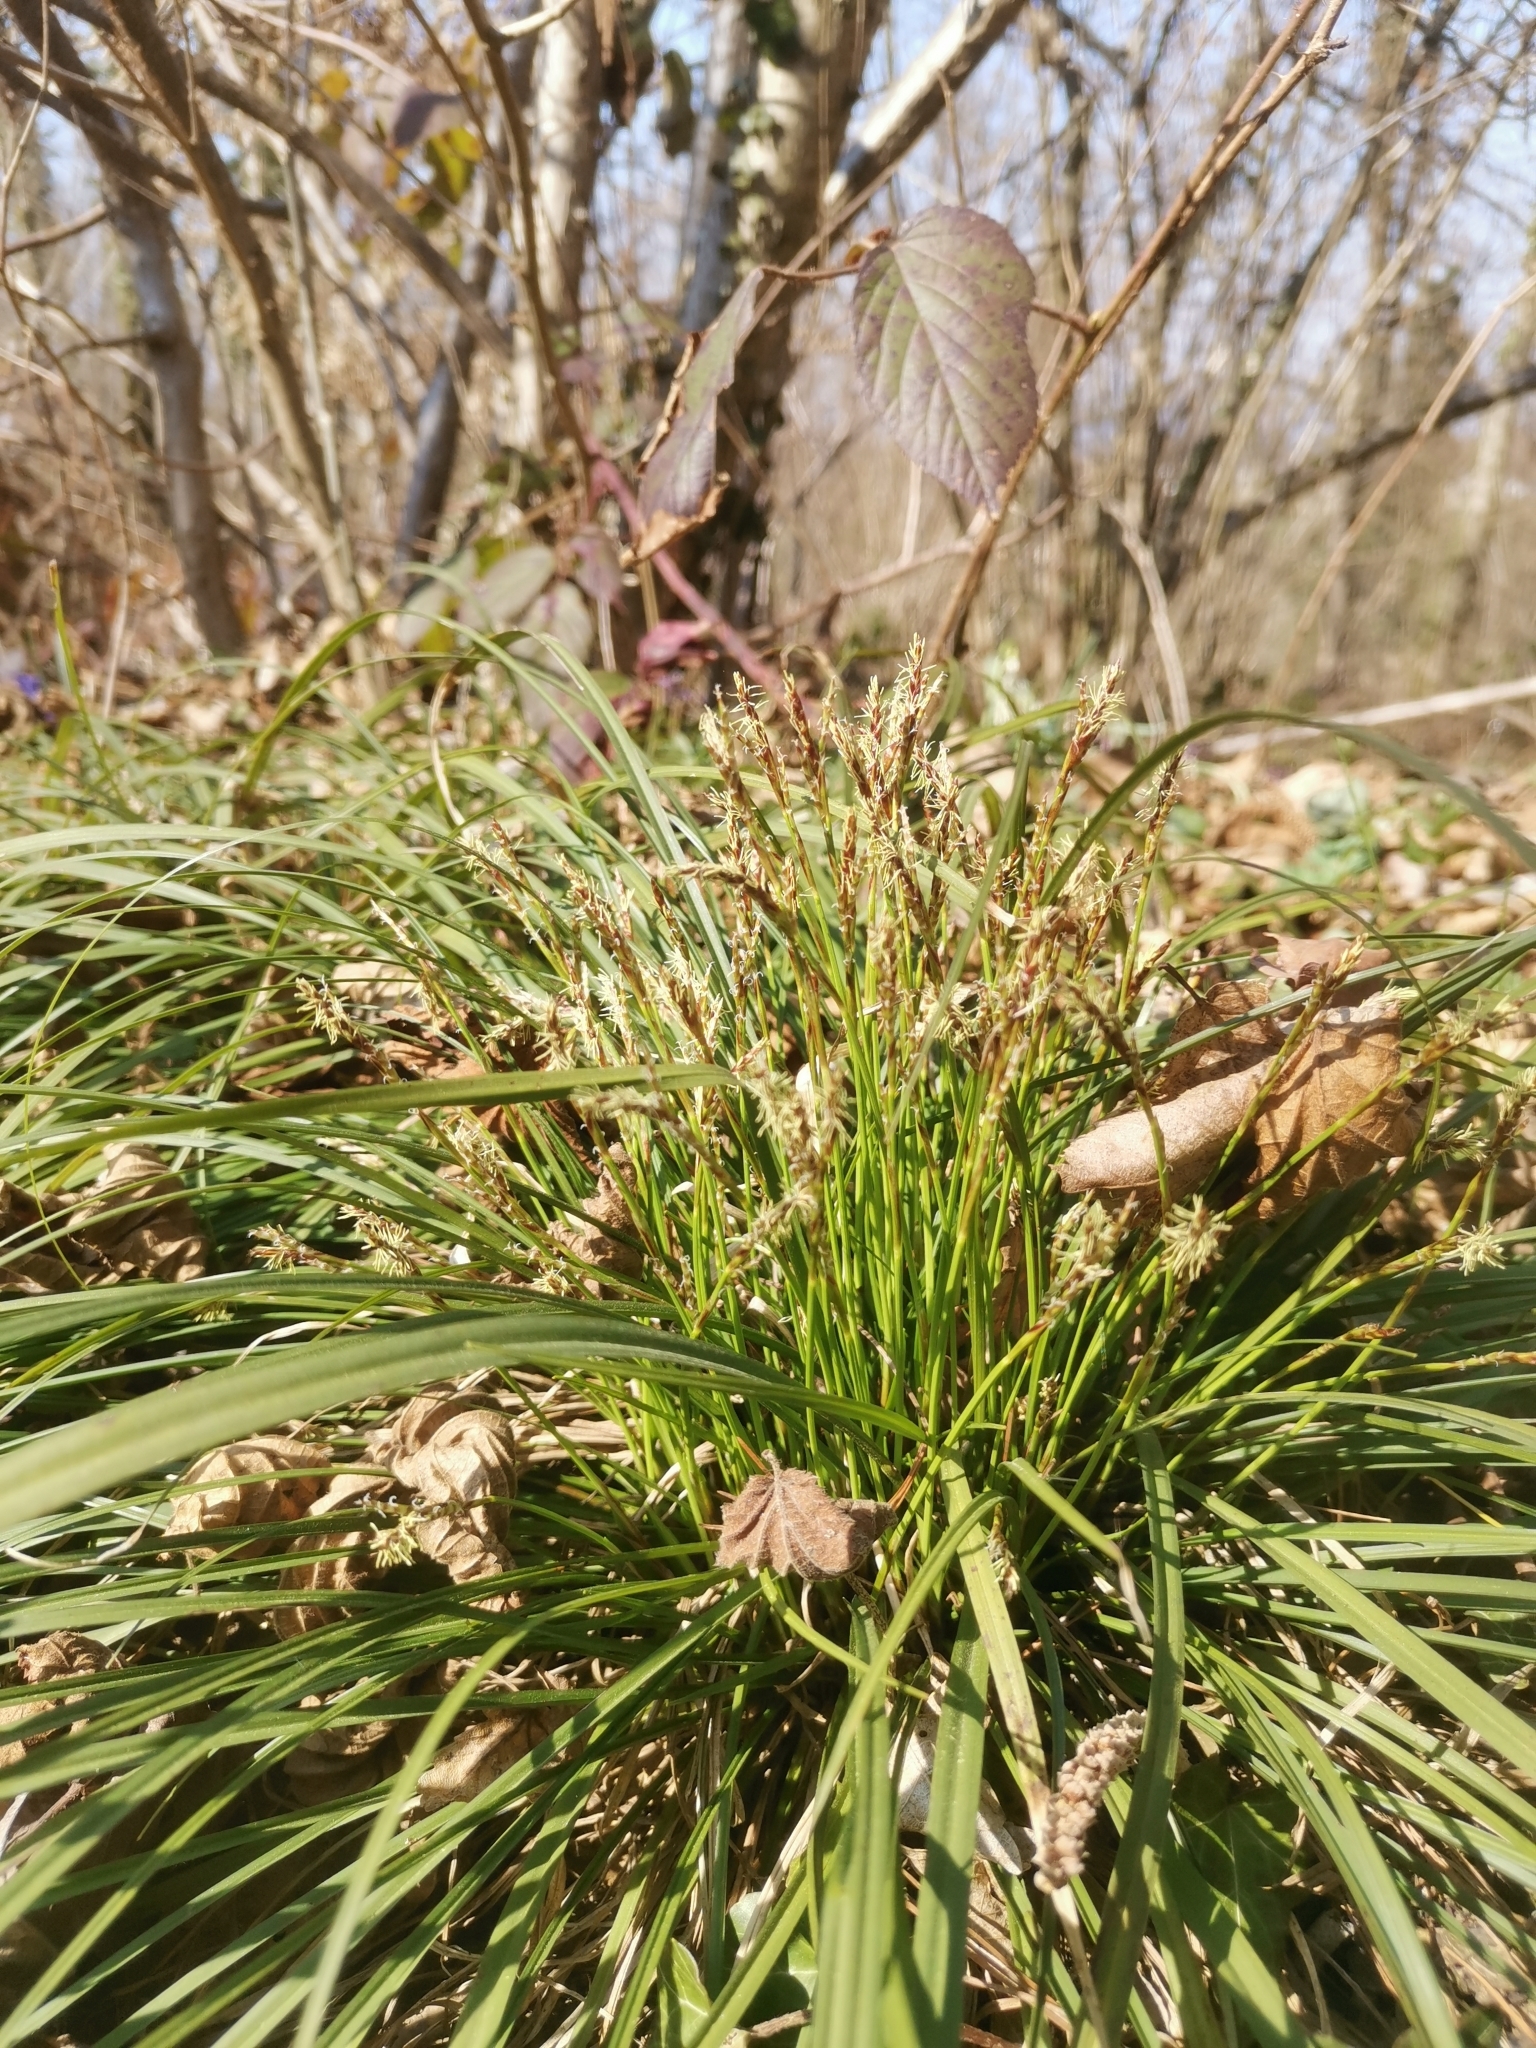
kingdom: Plantae
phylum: Tracheophyta
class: Liliopsida
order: Poales
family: Cyperaceae
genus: Carex
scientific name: Carex digitata
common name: Fingered sedge
